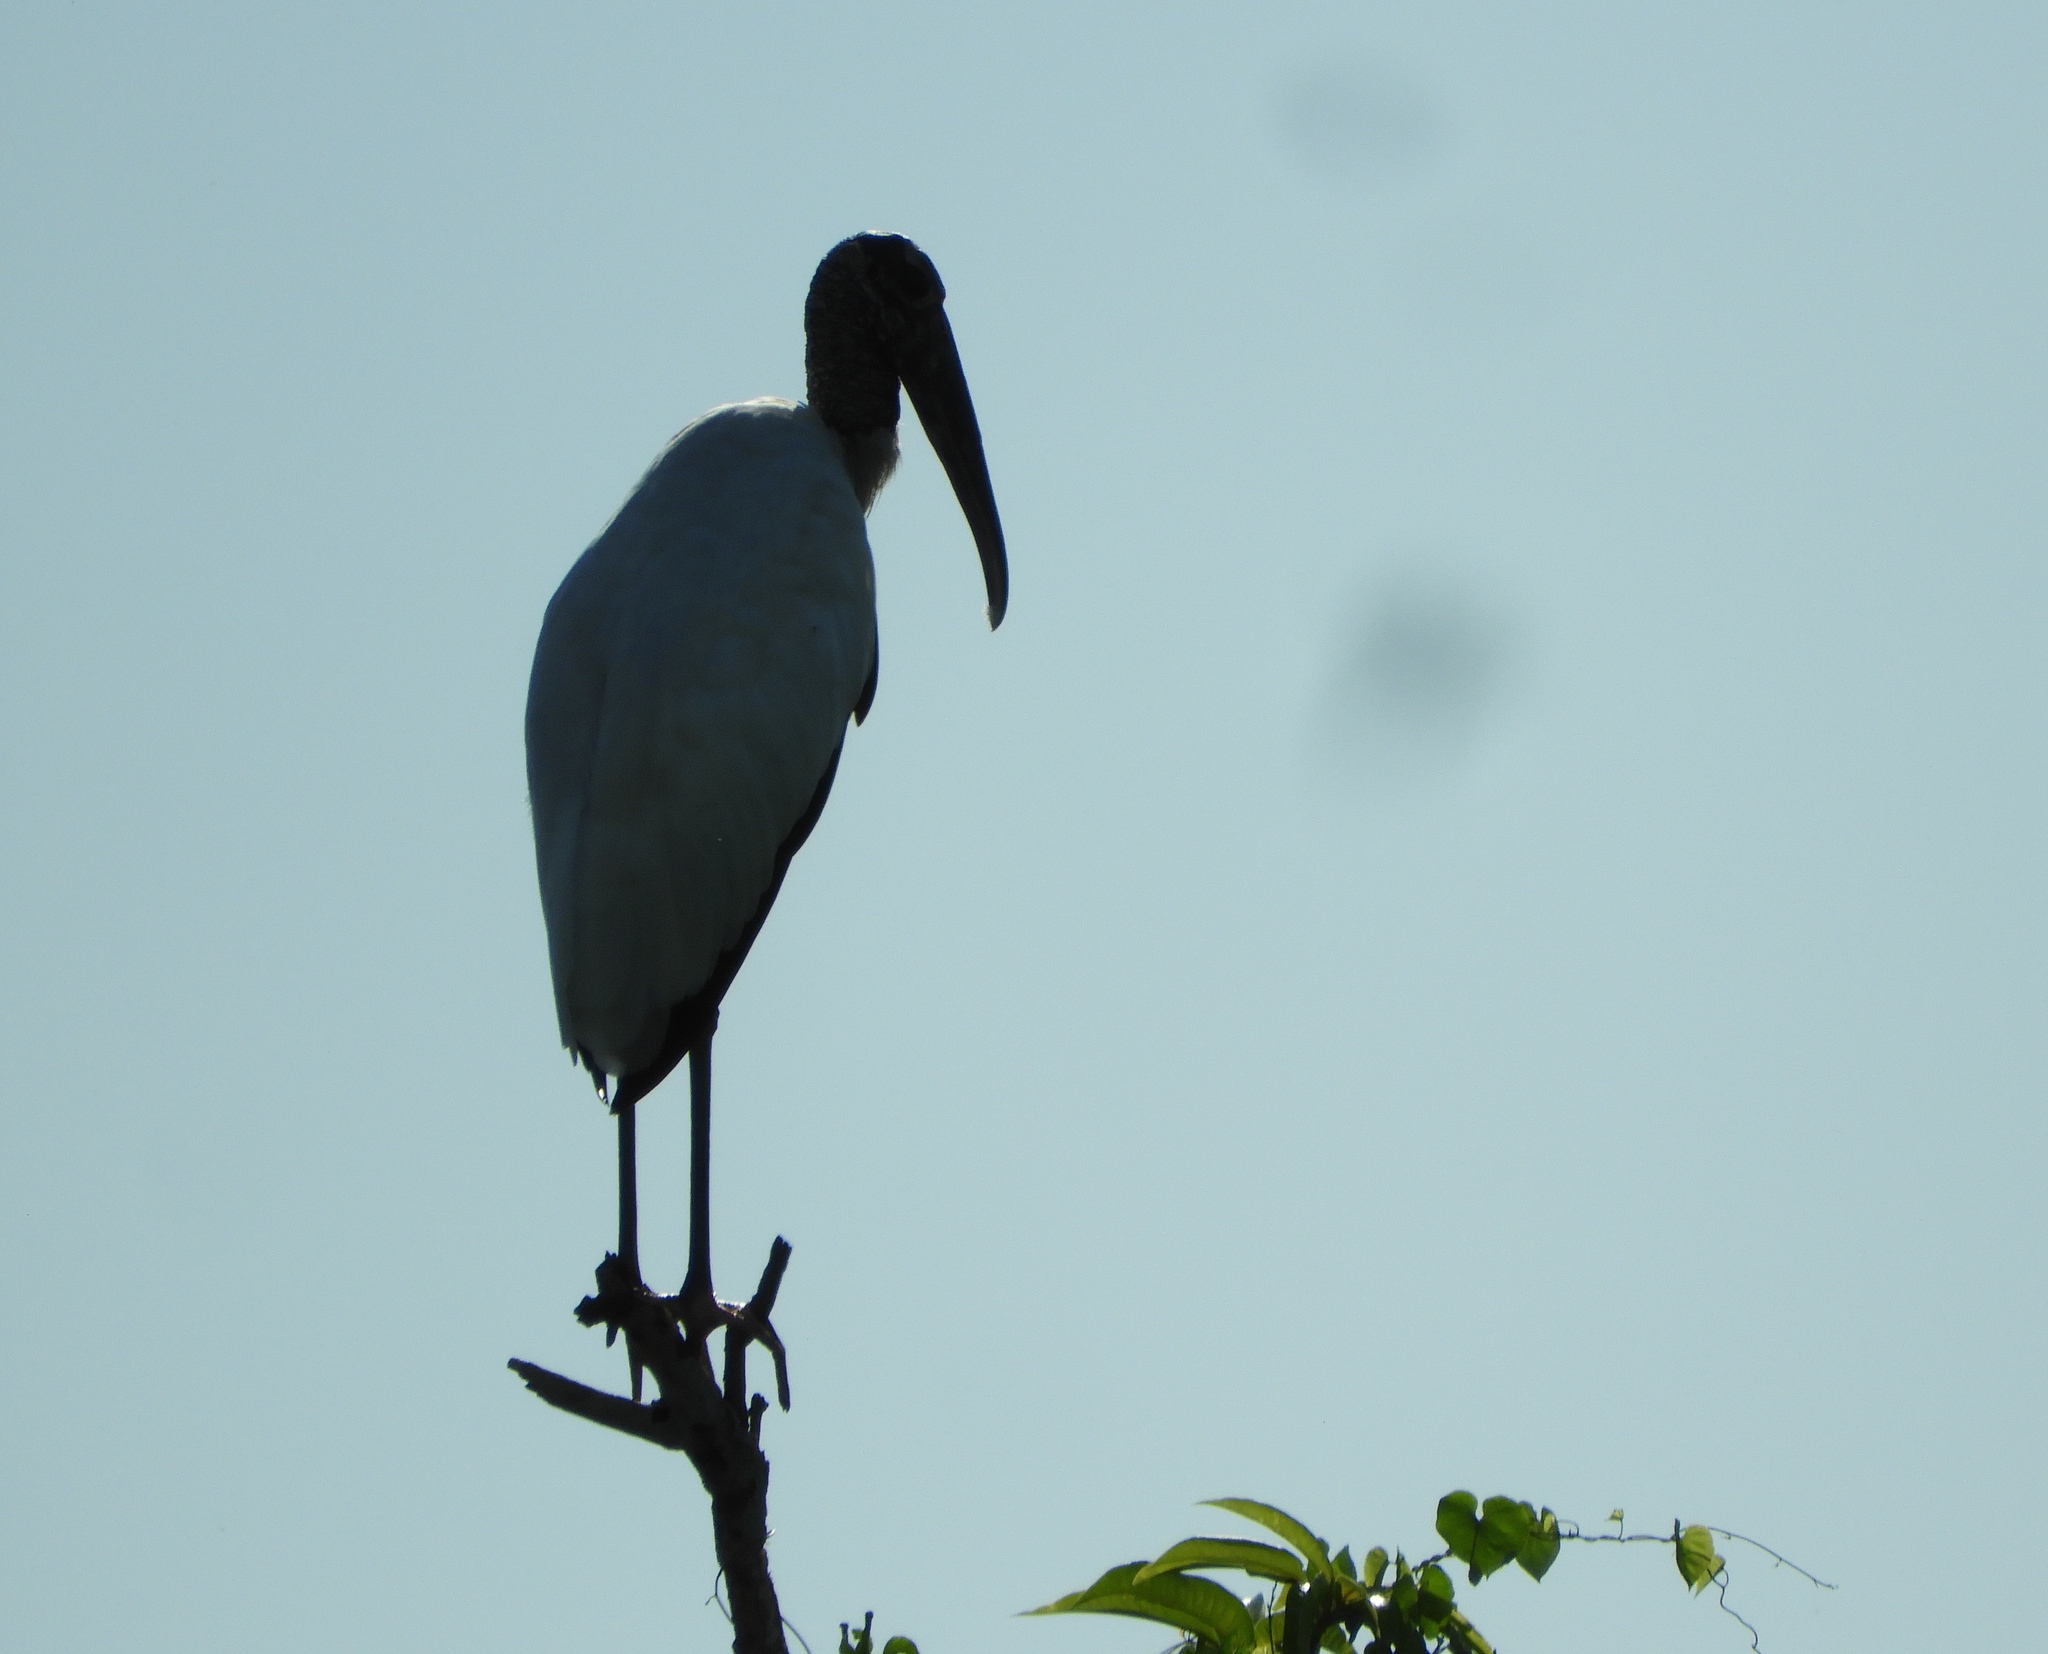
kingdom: Animalia
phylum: Chordata
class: Aves
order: Ciconiiformes
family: Ciconiidae
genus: Mycteria
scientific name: Mycteria americana
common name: Wood stork
